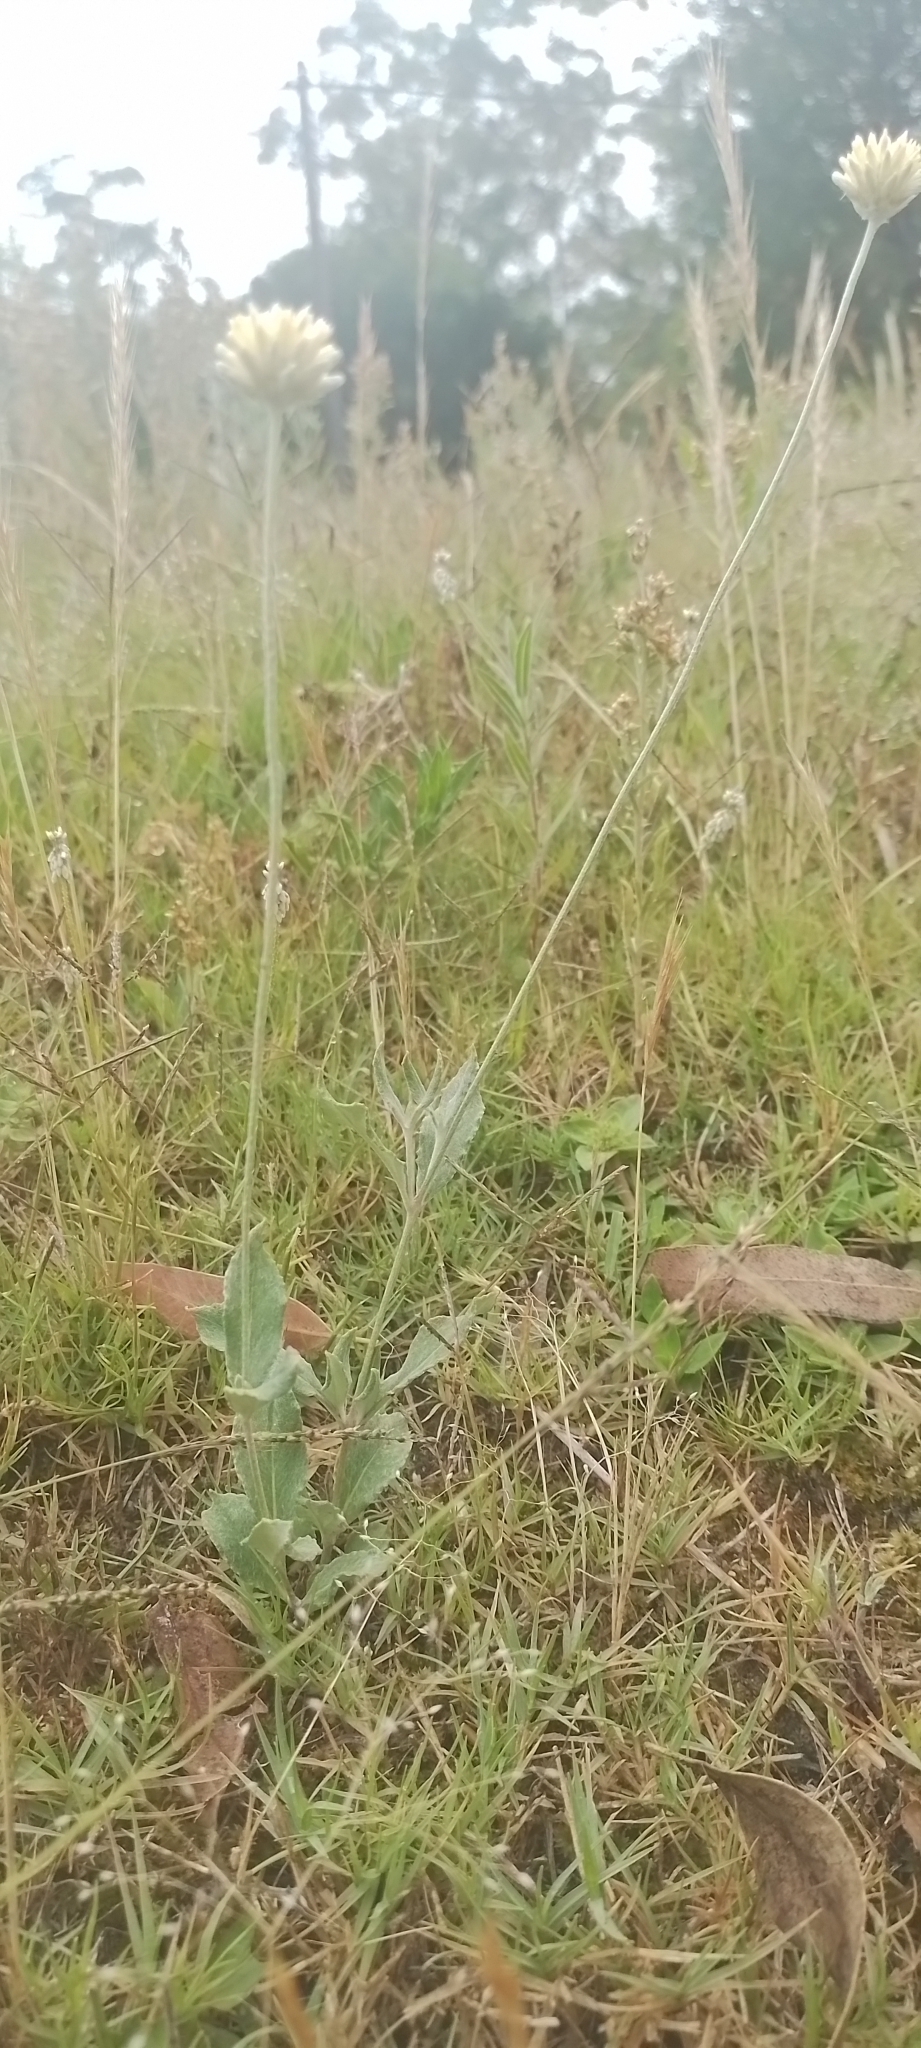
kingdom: Plantae
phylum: Tracheophyta
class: Magnoliopsida
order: Caryophyllales
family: Amaranthaceae
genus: Pfaffia
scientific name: Pfaffia gnaphalioides
